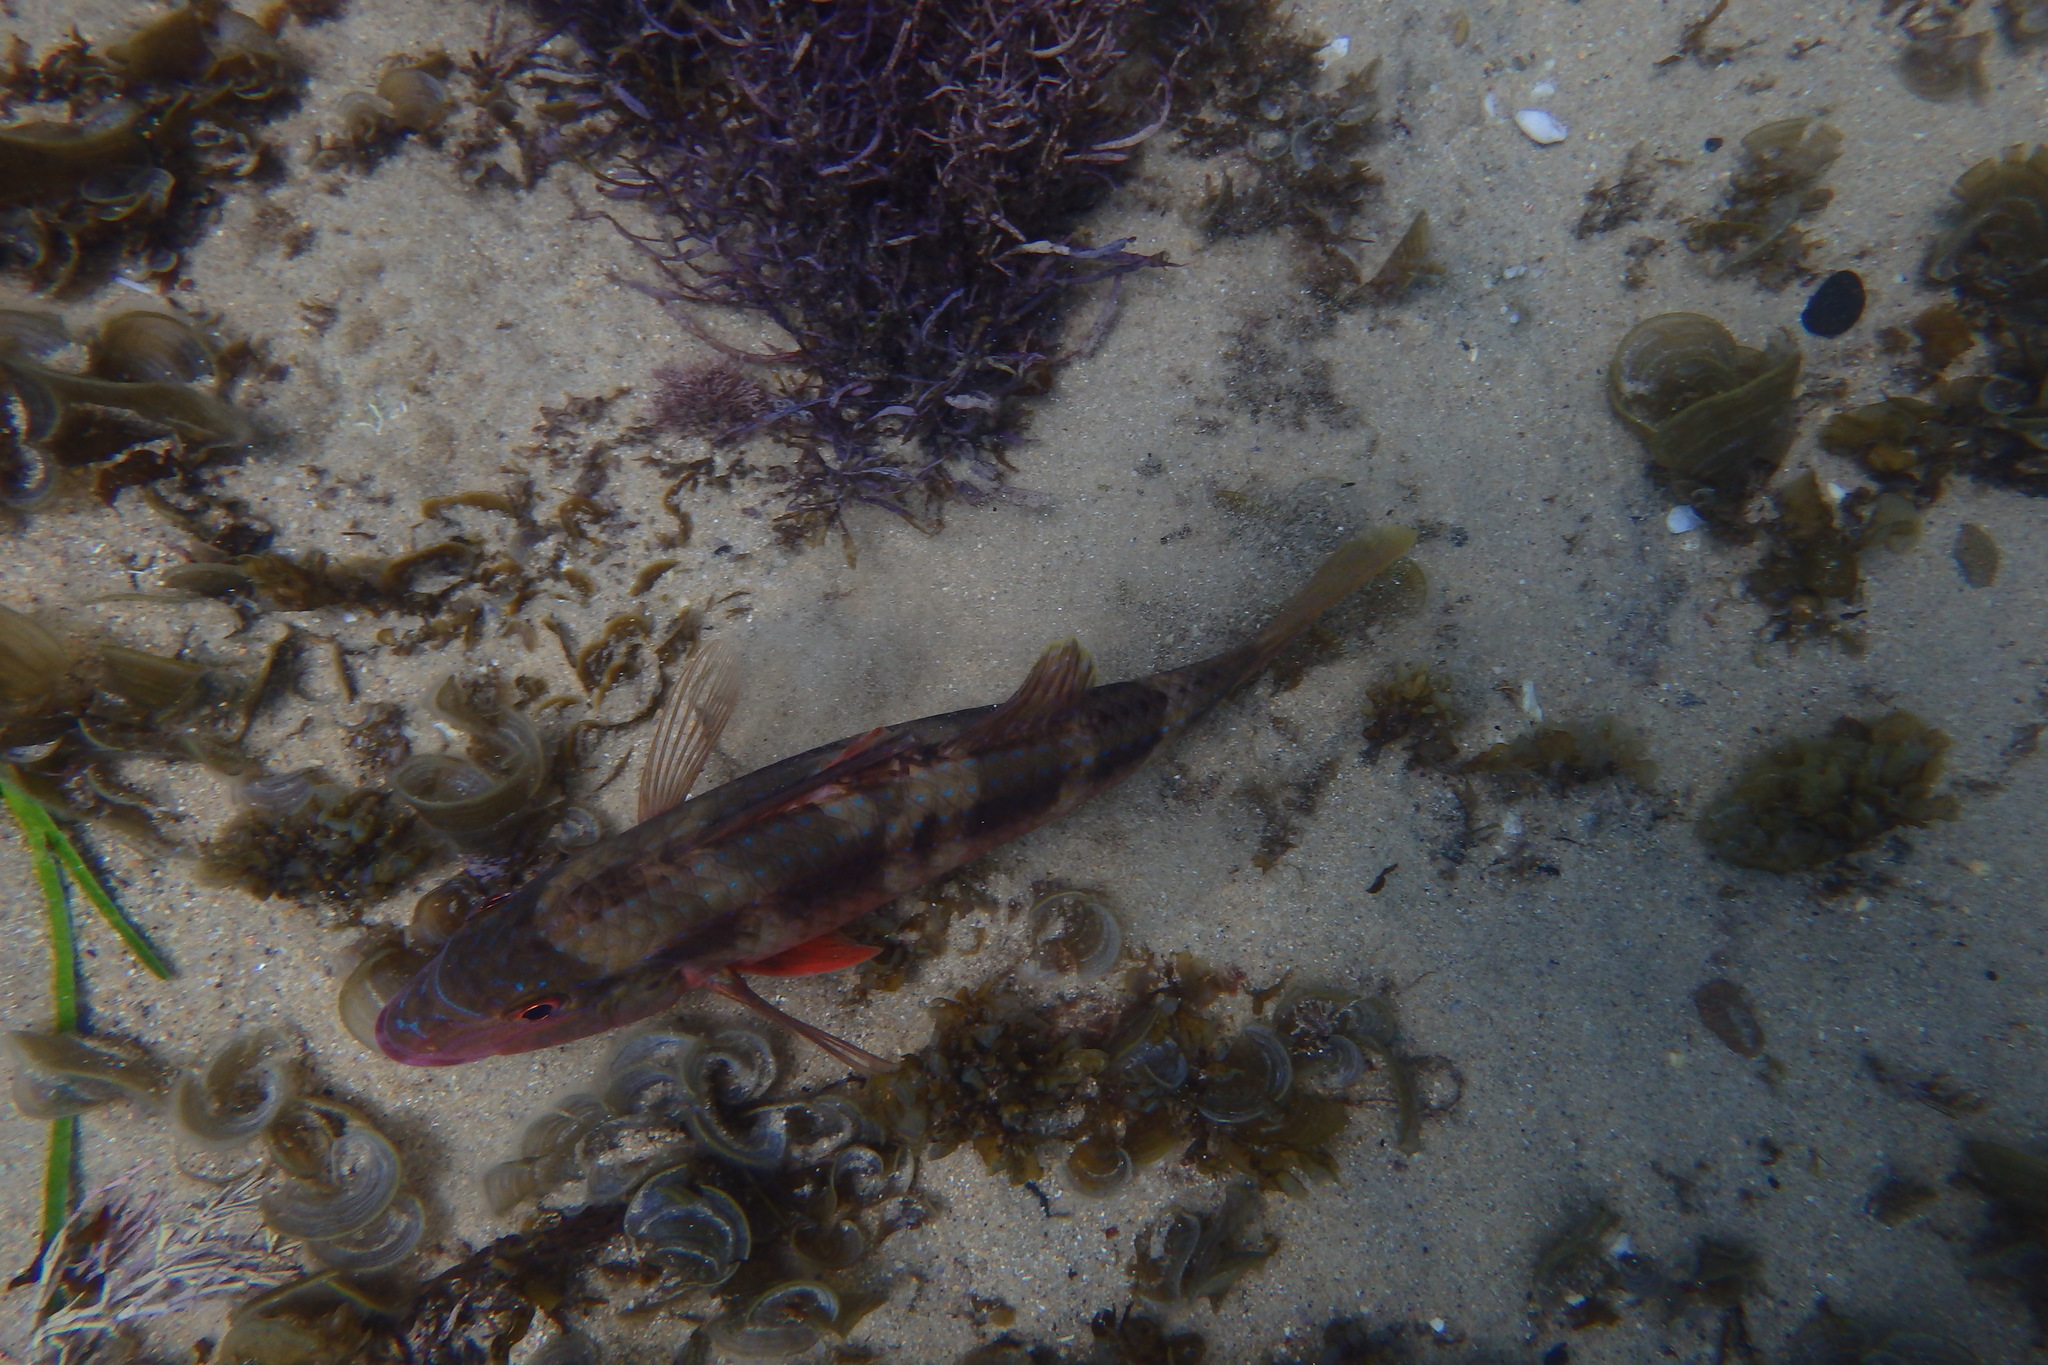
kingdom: Animalia
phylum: Chordata
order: Perciformes
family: Mullidae
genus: Upeneichthys
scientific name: Upeneichthys lineatus
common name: Red mullet
